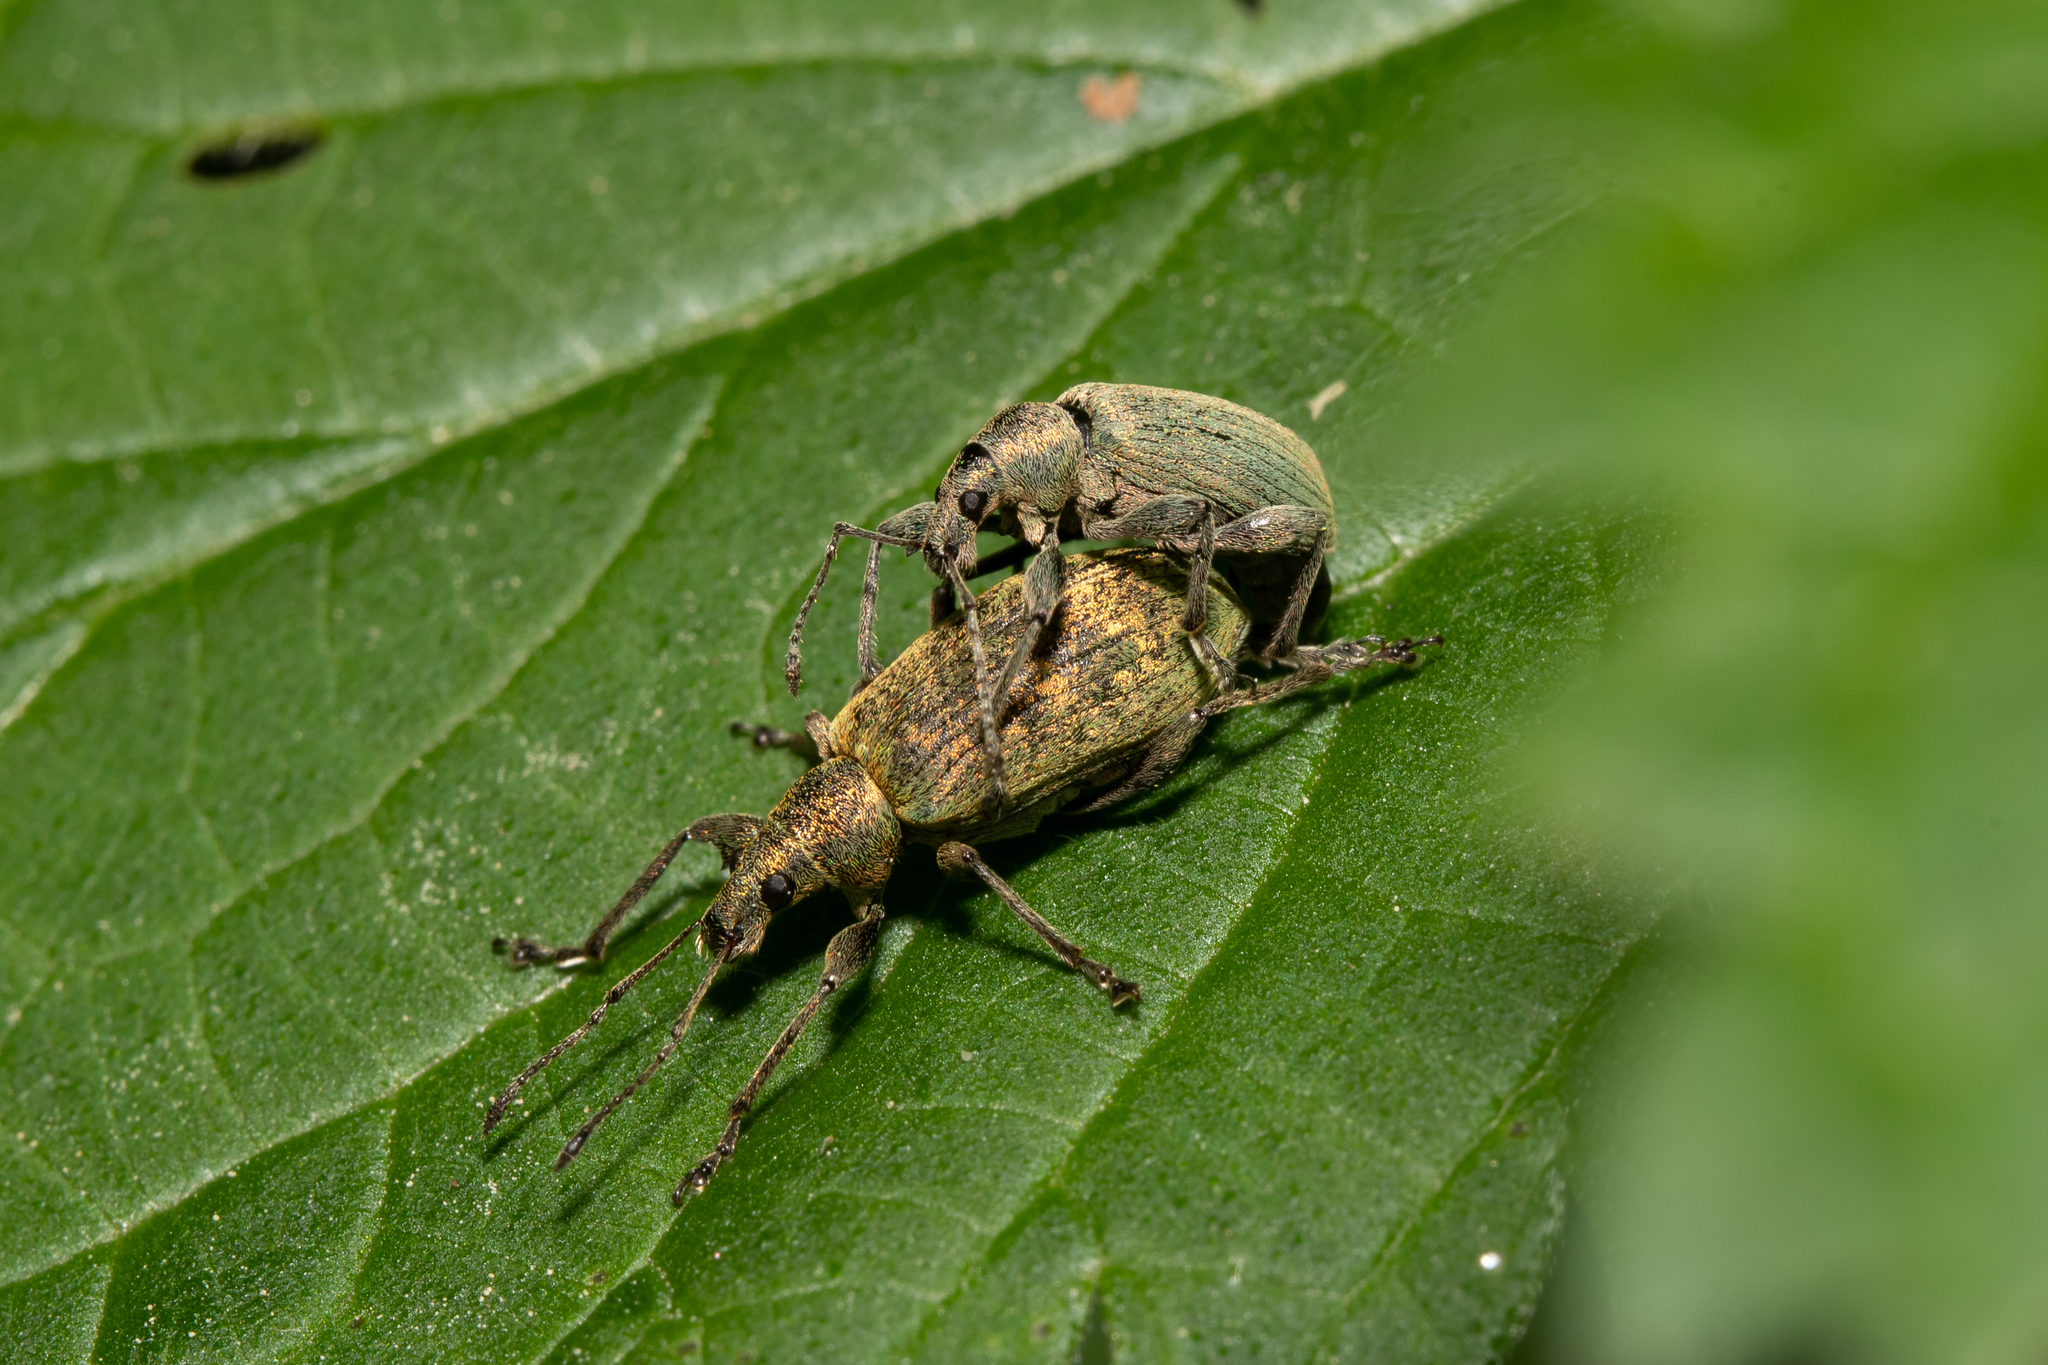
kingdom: Animalia
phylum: Arthropoda
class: Insecta
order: Coleoptera
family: Curculionidae
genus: Phyllobius
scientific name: Phyllobius pomaceus
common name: Green nettle weevil
